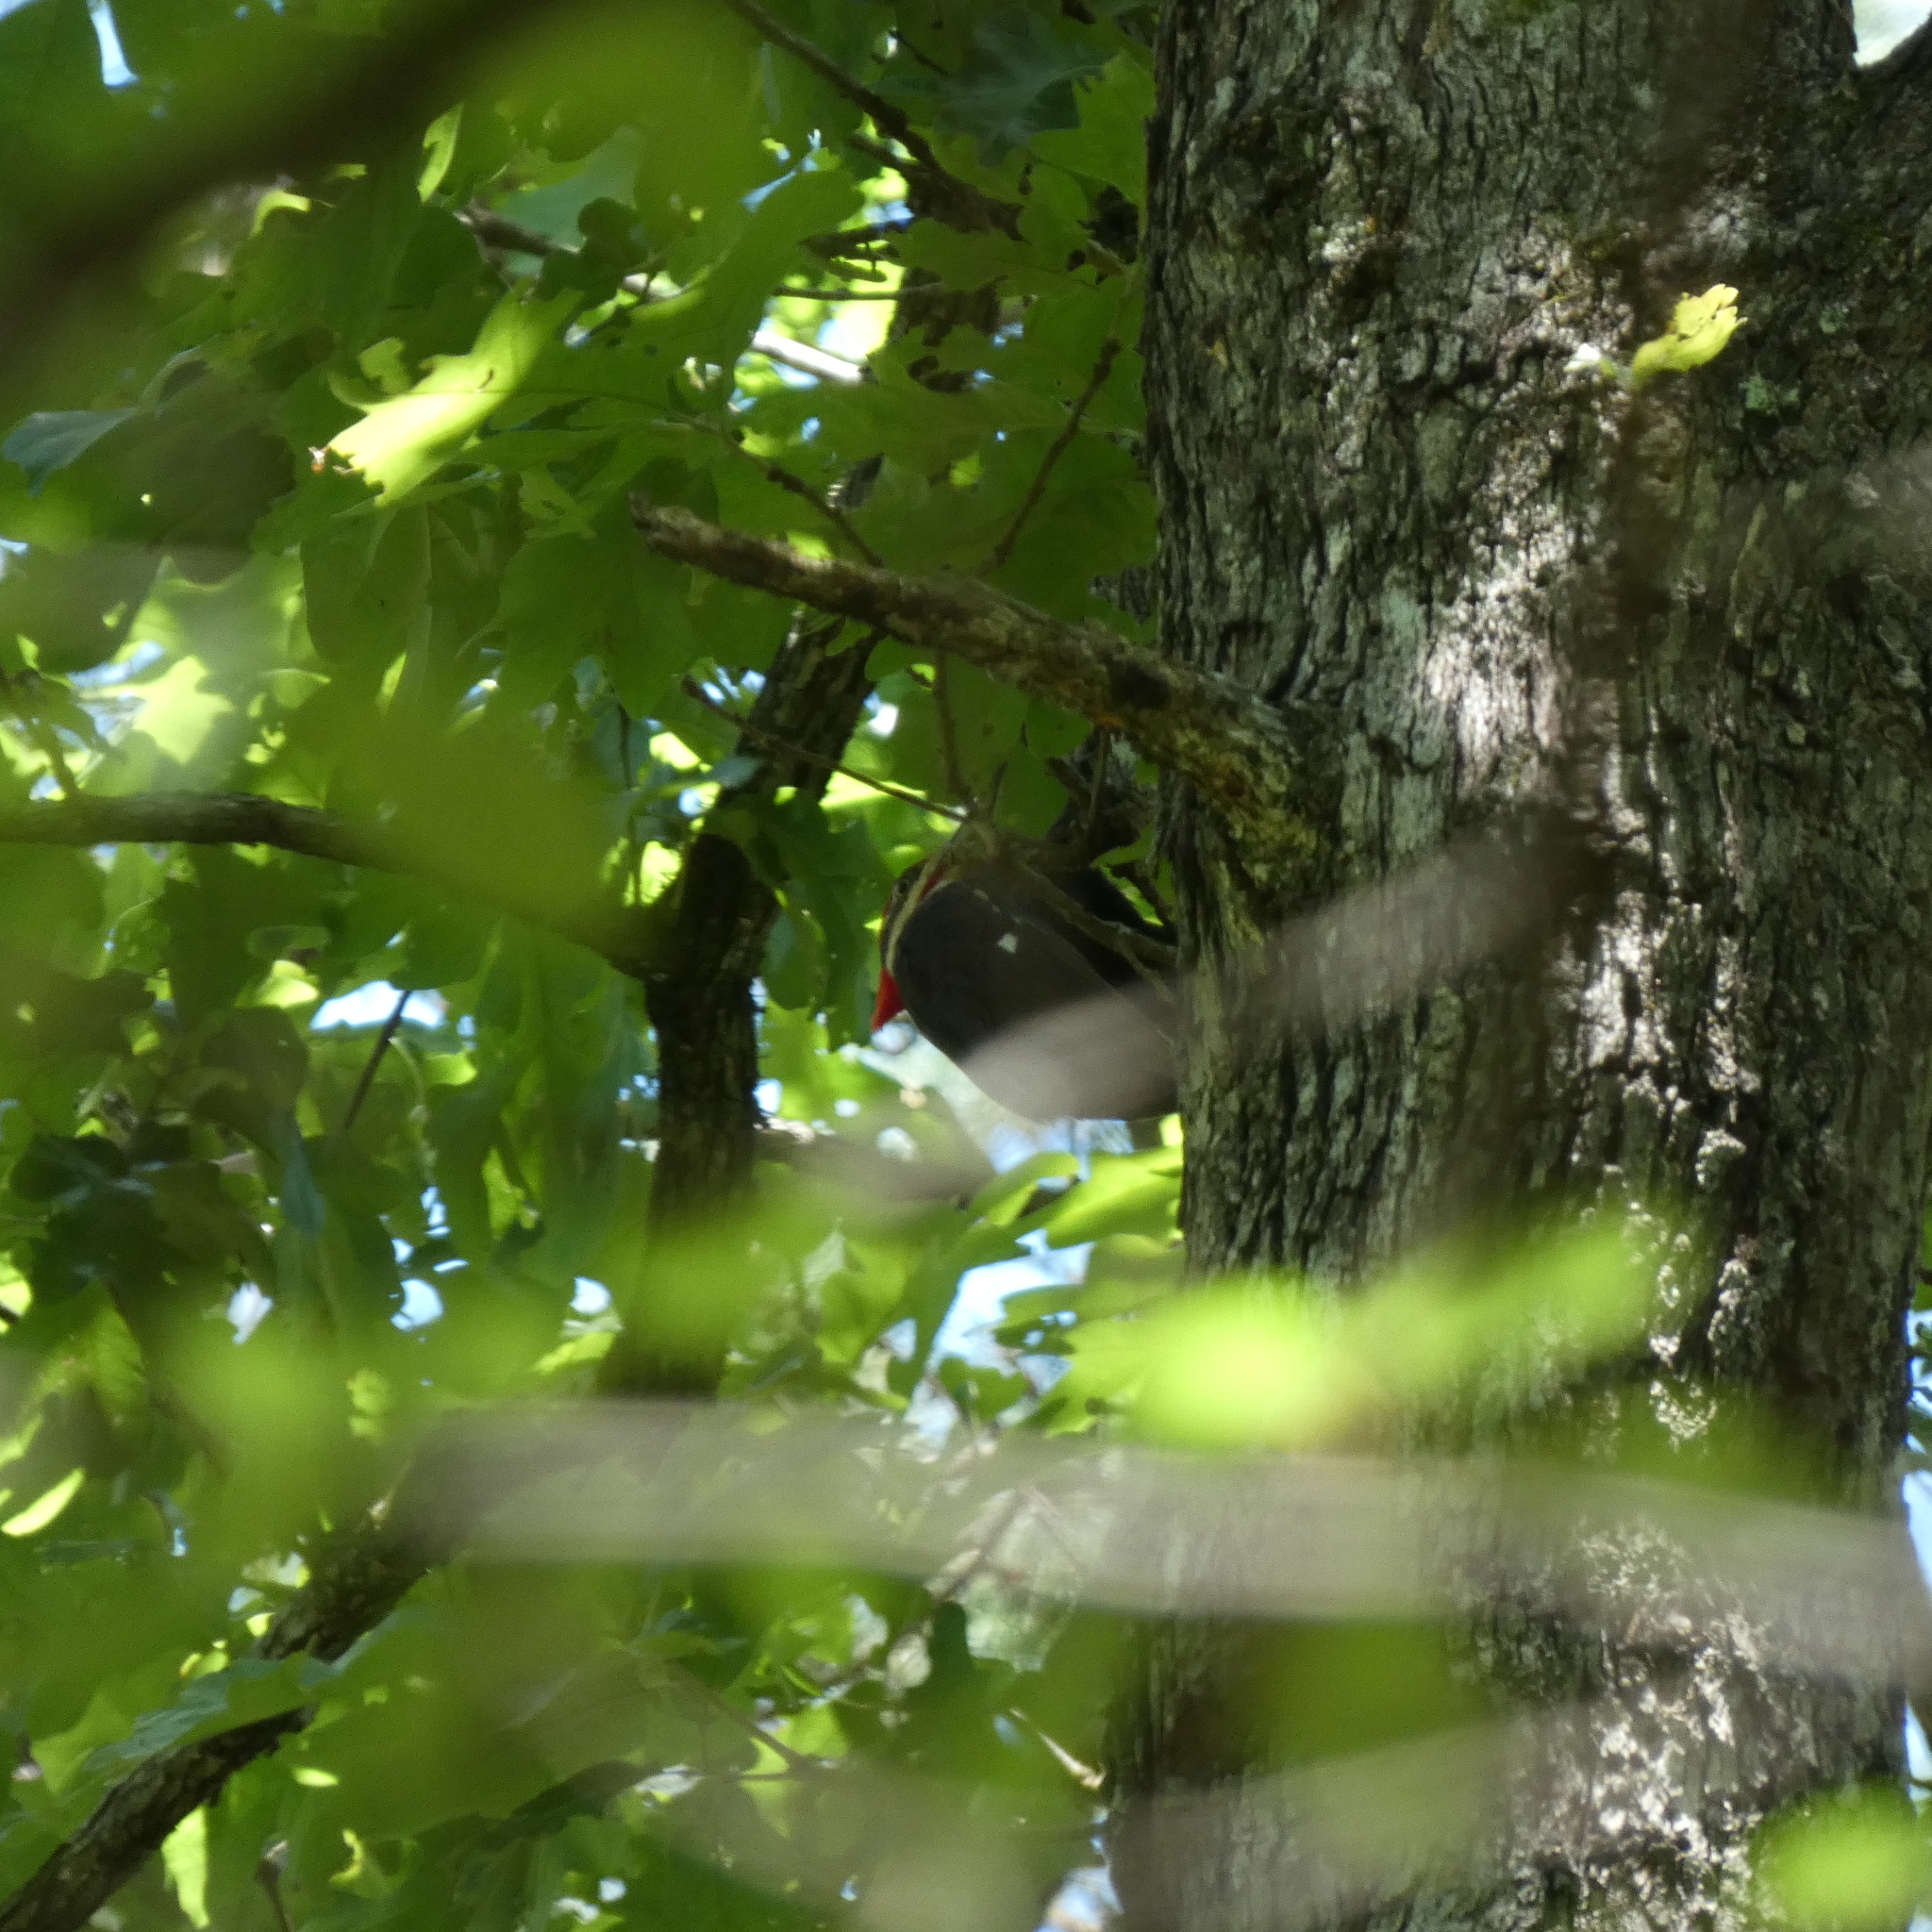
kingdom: Animalia
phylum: Chordata
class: Aves
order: Piciformes
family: Picidae
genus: Dryocopus
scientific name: Dryocopus pileatus
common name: Pileated woodpecker
